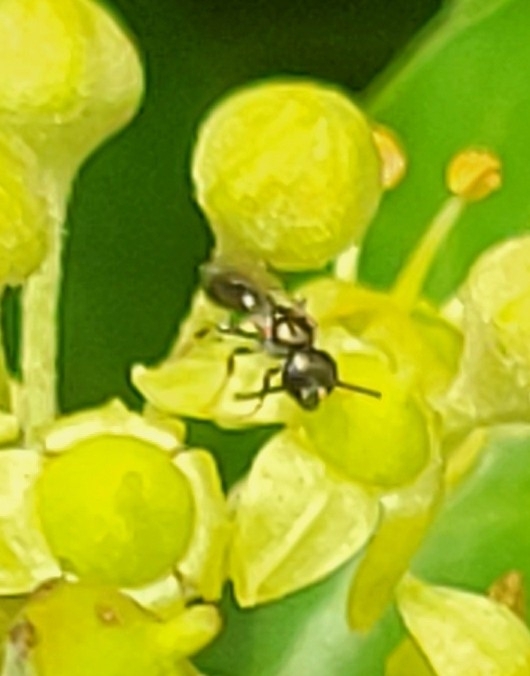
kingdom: Animalia
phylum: Arthropoda
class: Insecta
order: Hymenoptera
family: Halictidae
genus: Dialictus
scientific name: Dialictus
